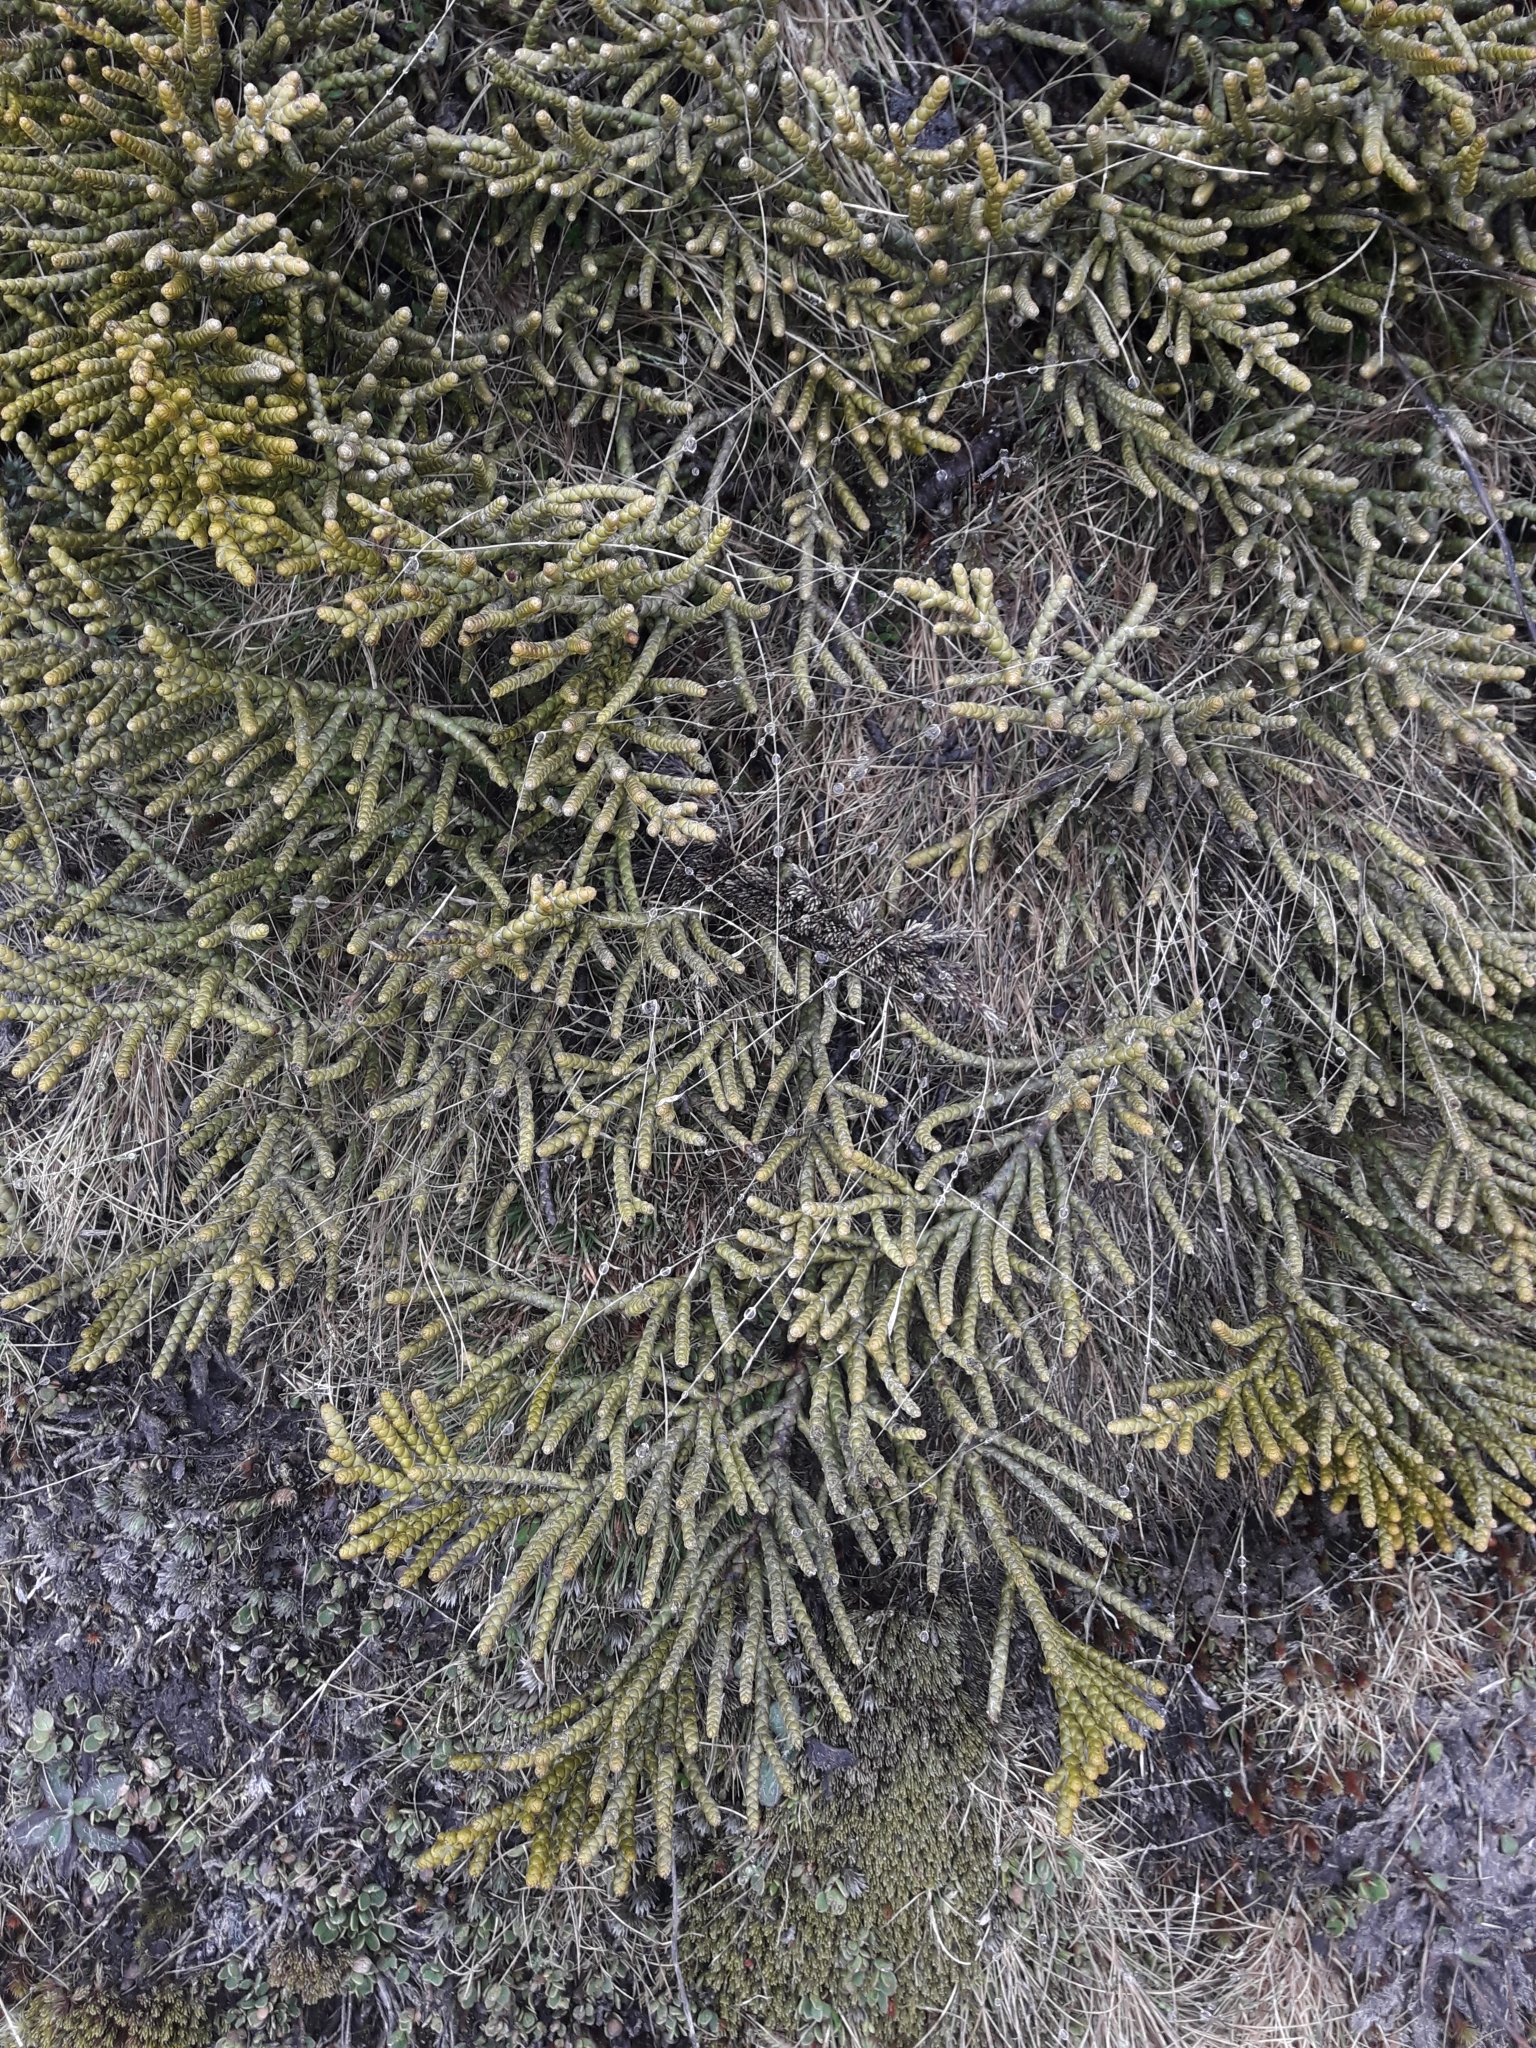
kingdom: Plantae
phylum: Tracheophyta
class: Magnoliopsida
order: Lamiales
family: Plantaginaceae
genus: Veronica
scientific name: Veronica hectorii
